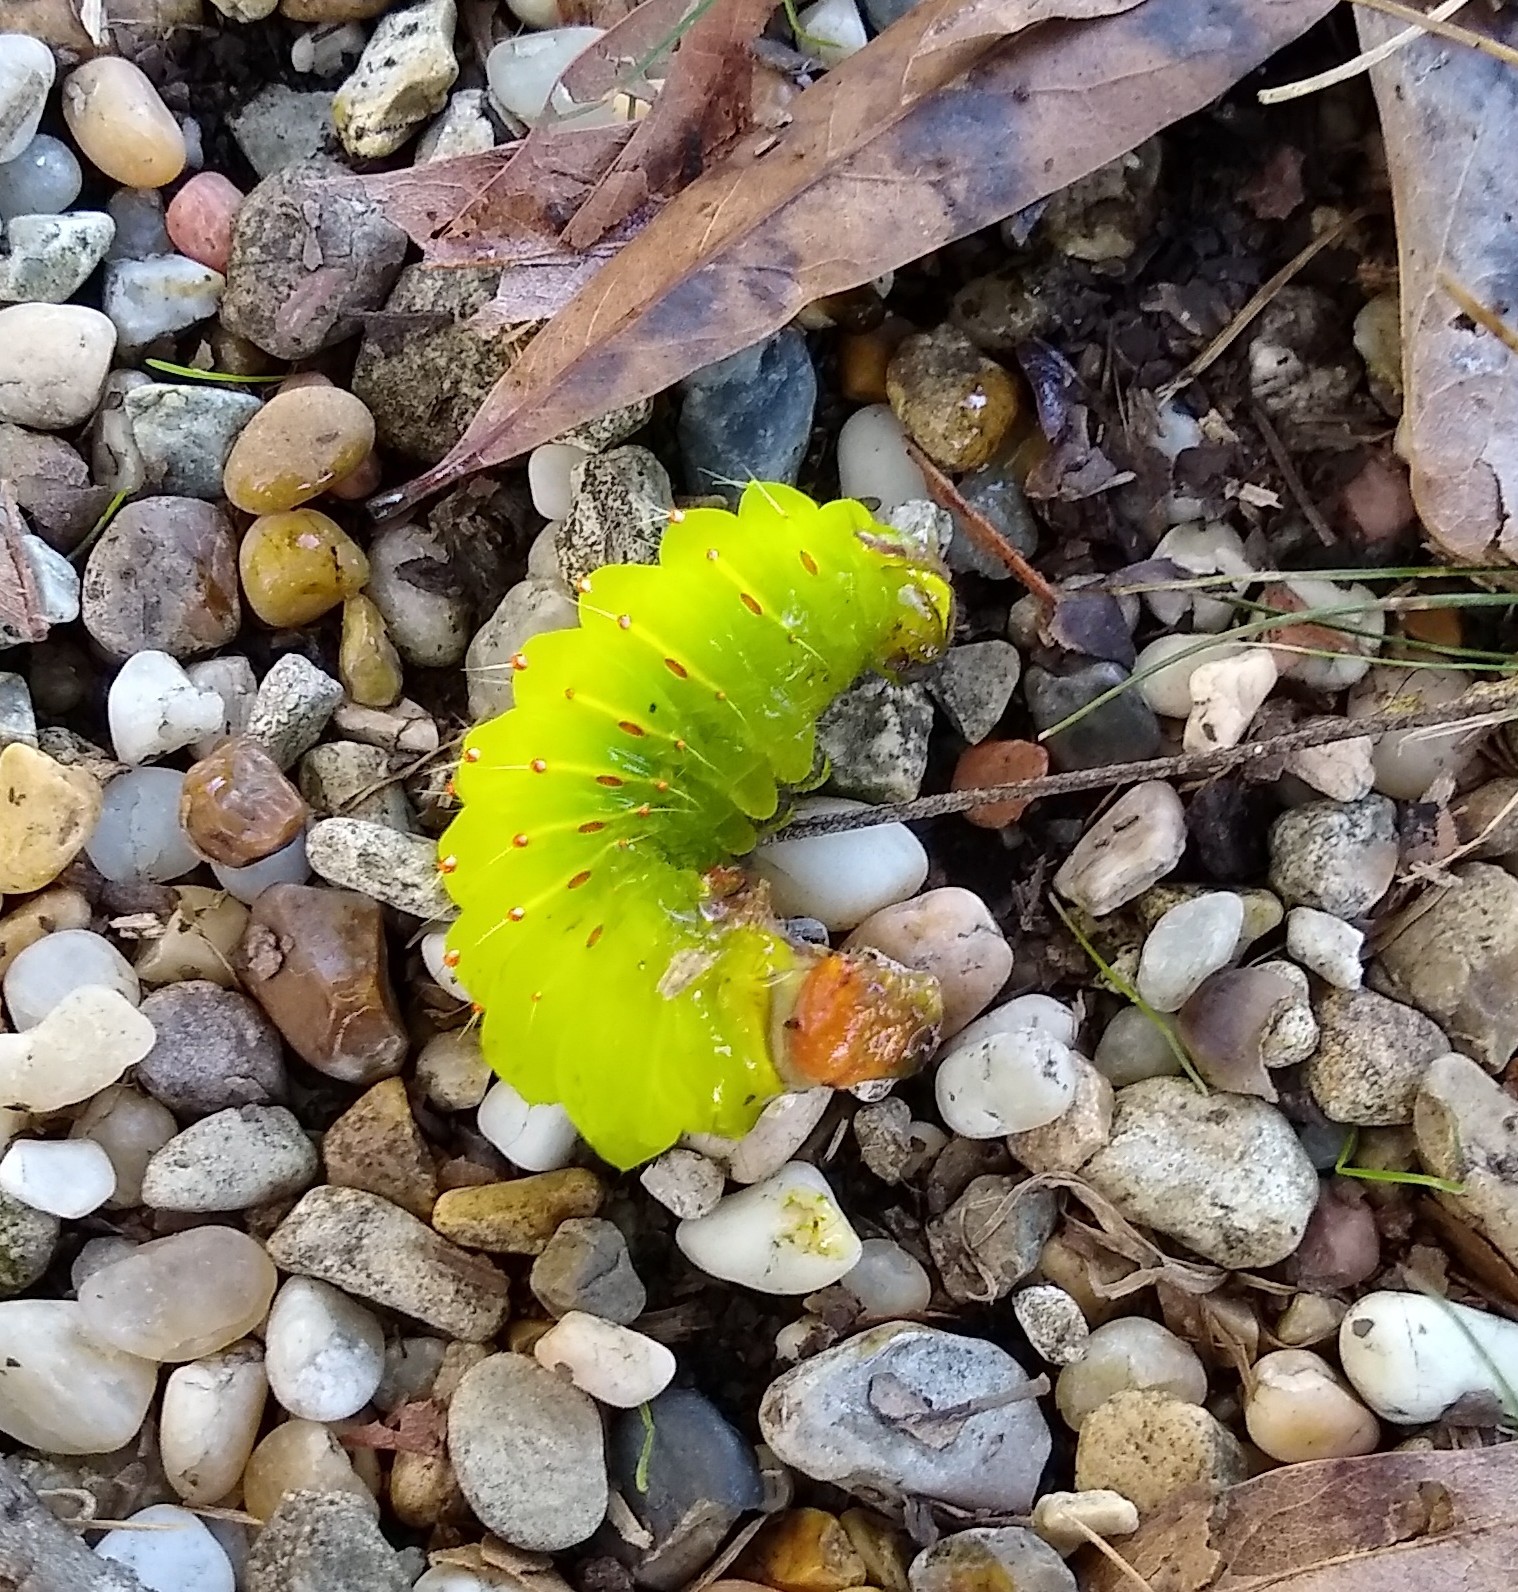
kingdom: Animalia
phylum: Arthropoda
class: Insecta
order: Lepidoptera
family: Saturniidae
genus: Antheraea
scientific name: Antheraea polyphemus
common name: Polyphemus moth
